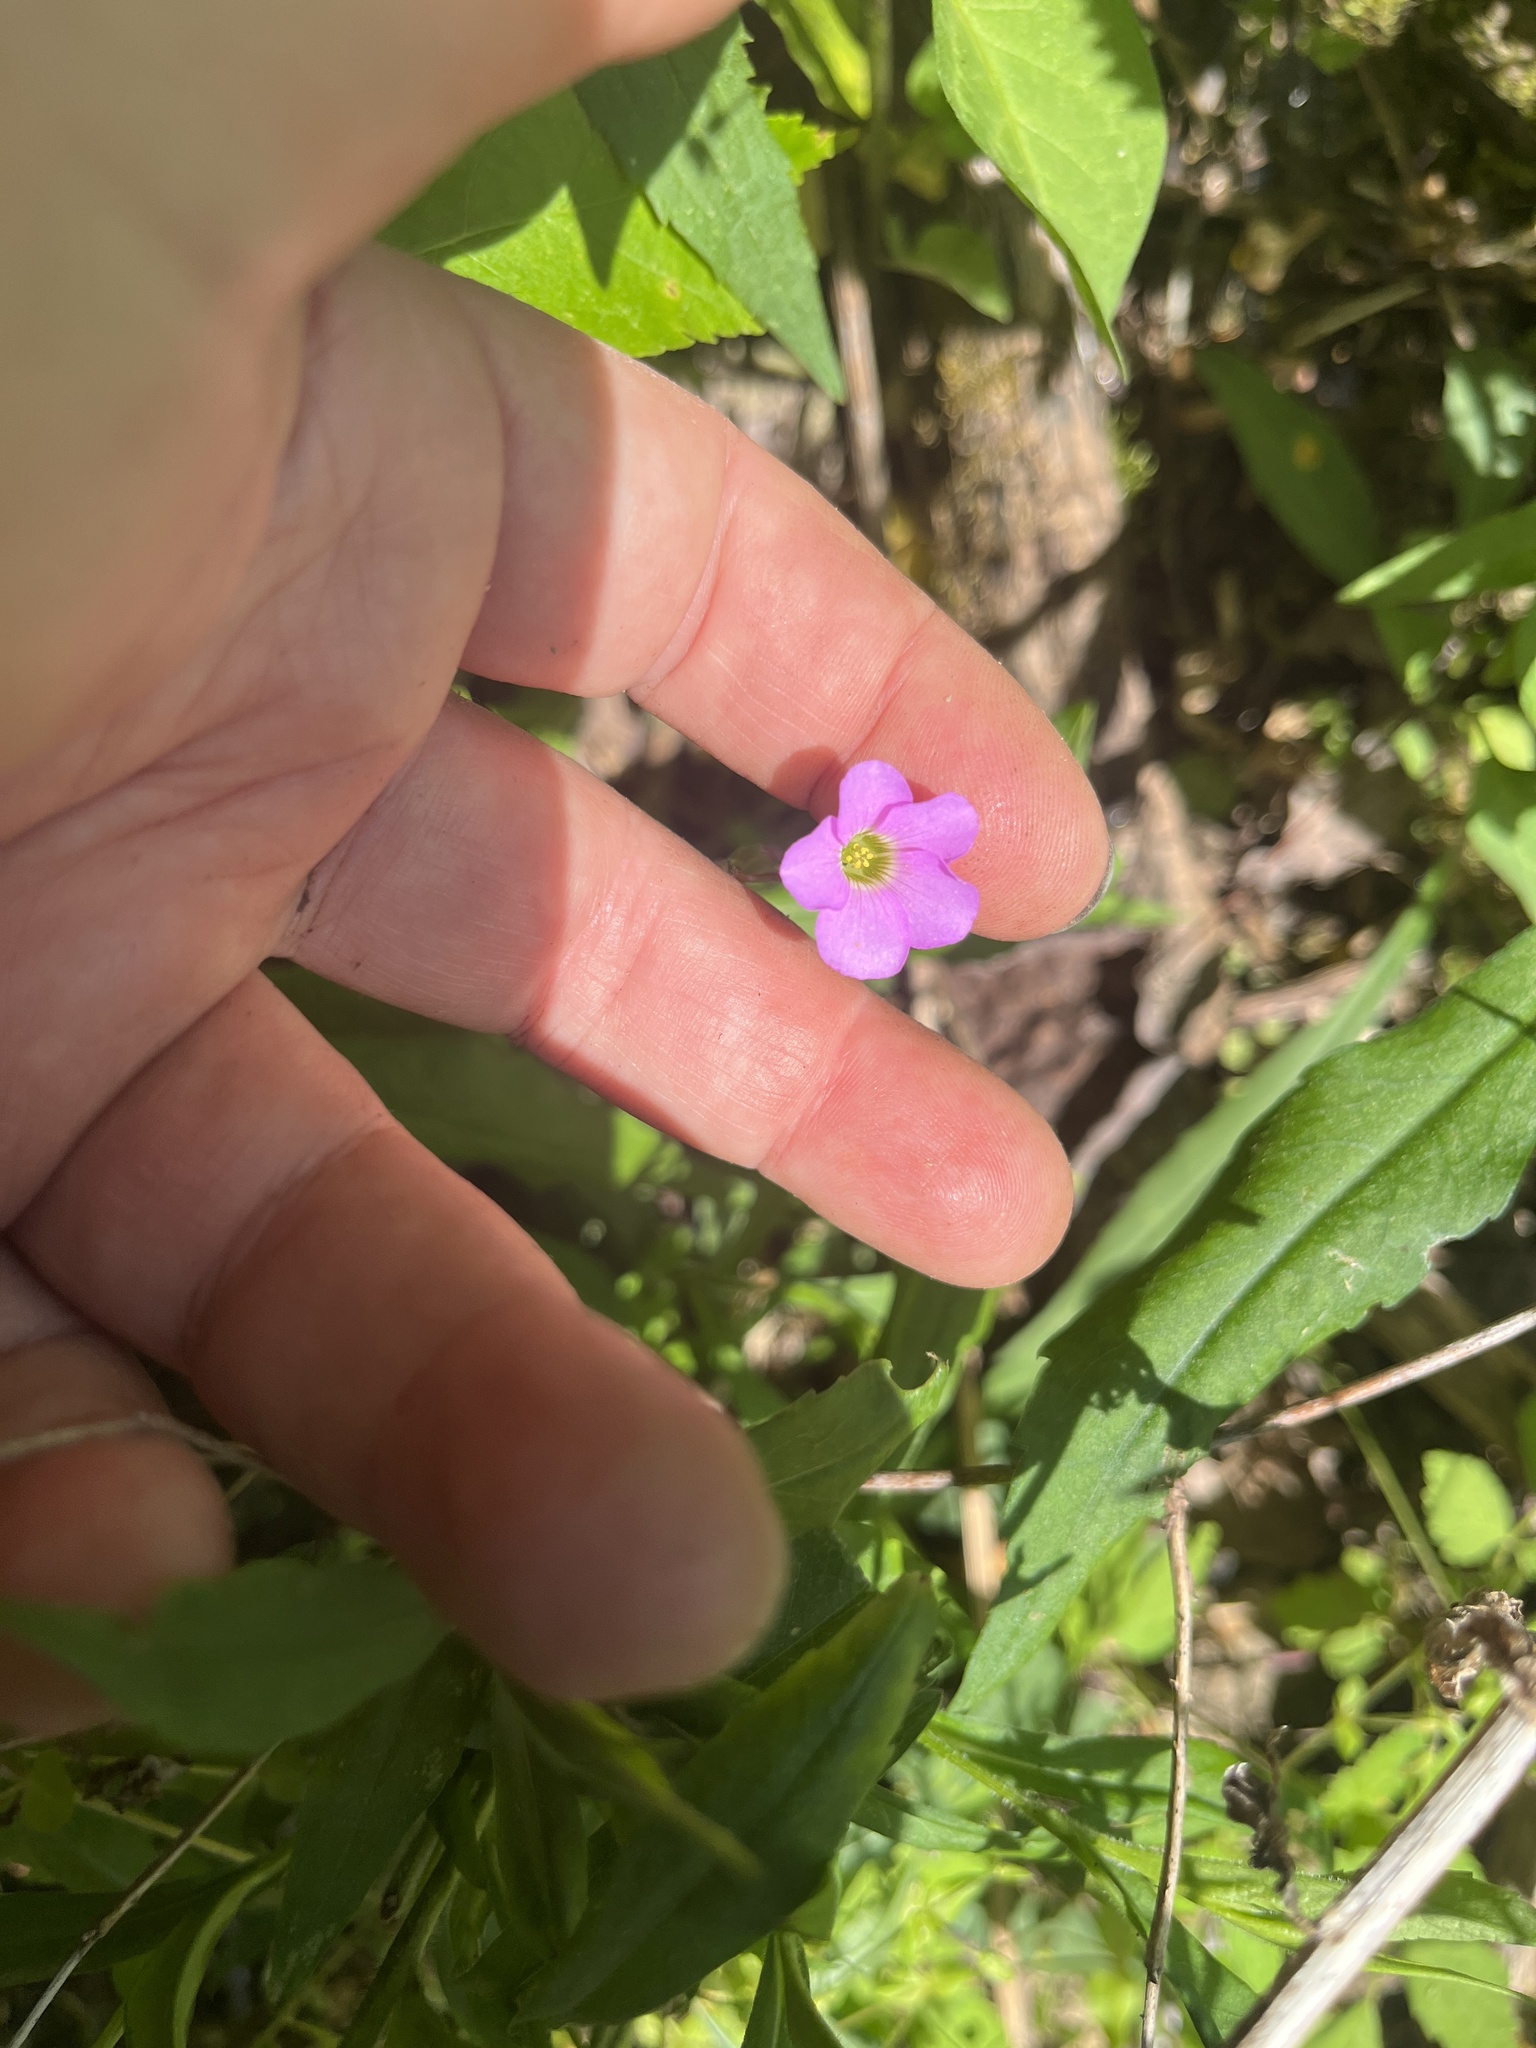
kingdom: Plantae
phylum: Tracheophyta
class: Magnoliopsida
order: Oxalidales
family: Oxalidaceae
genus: Oxalis
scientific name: Oxalis violacea
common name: Violet wood-sorrel
